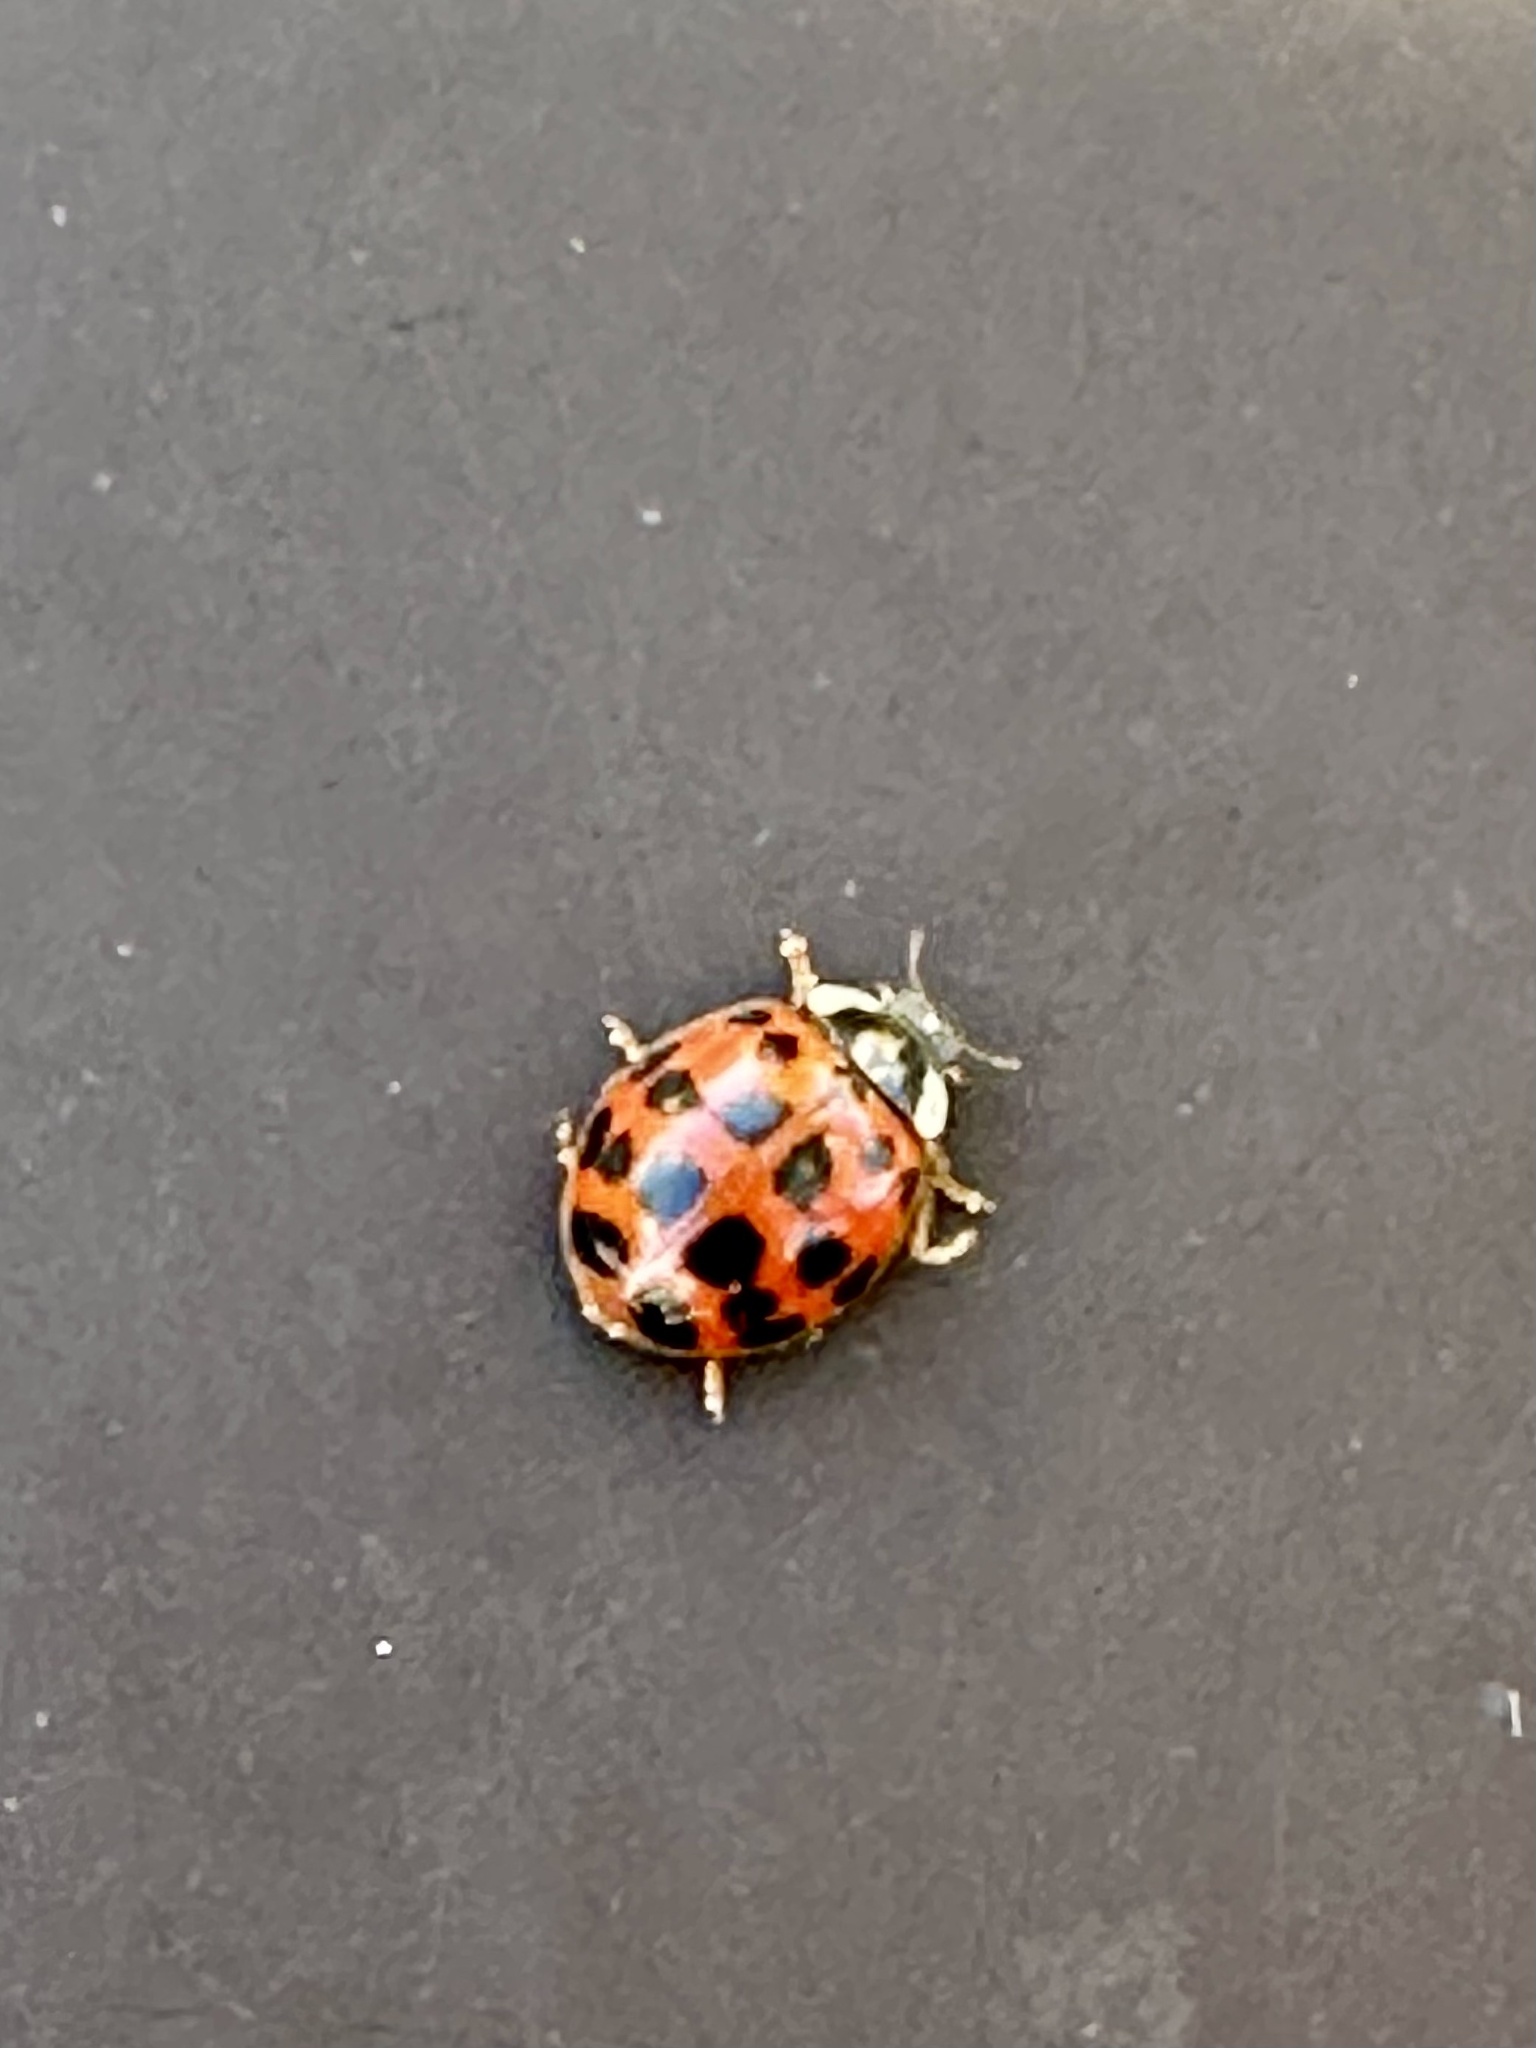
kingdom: Animalia
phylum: Arthropoda
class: Insecta
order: Coleoptera
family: Coccinellidae
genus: Harmonia
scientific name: Harmonia axyridis
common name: Harlequin ladybird
